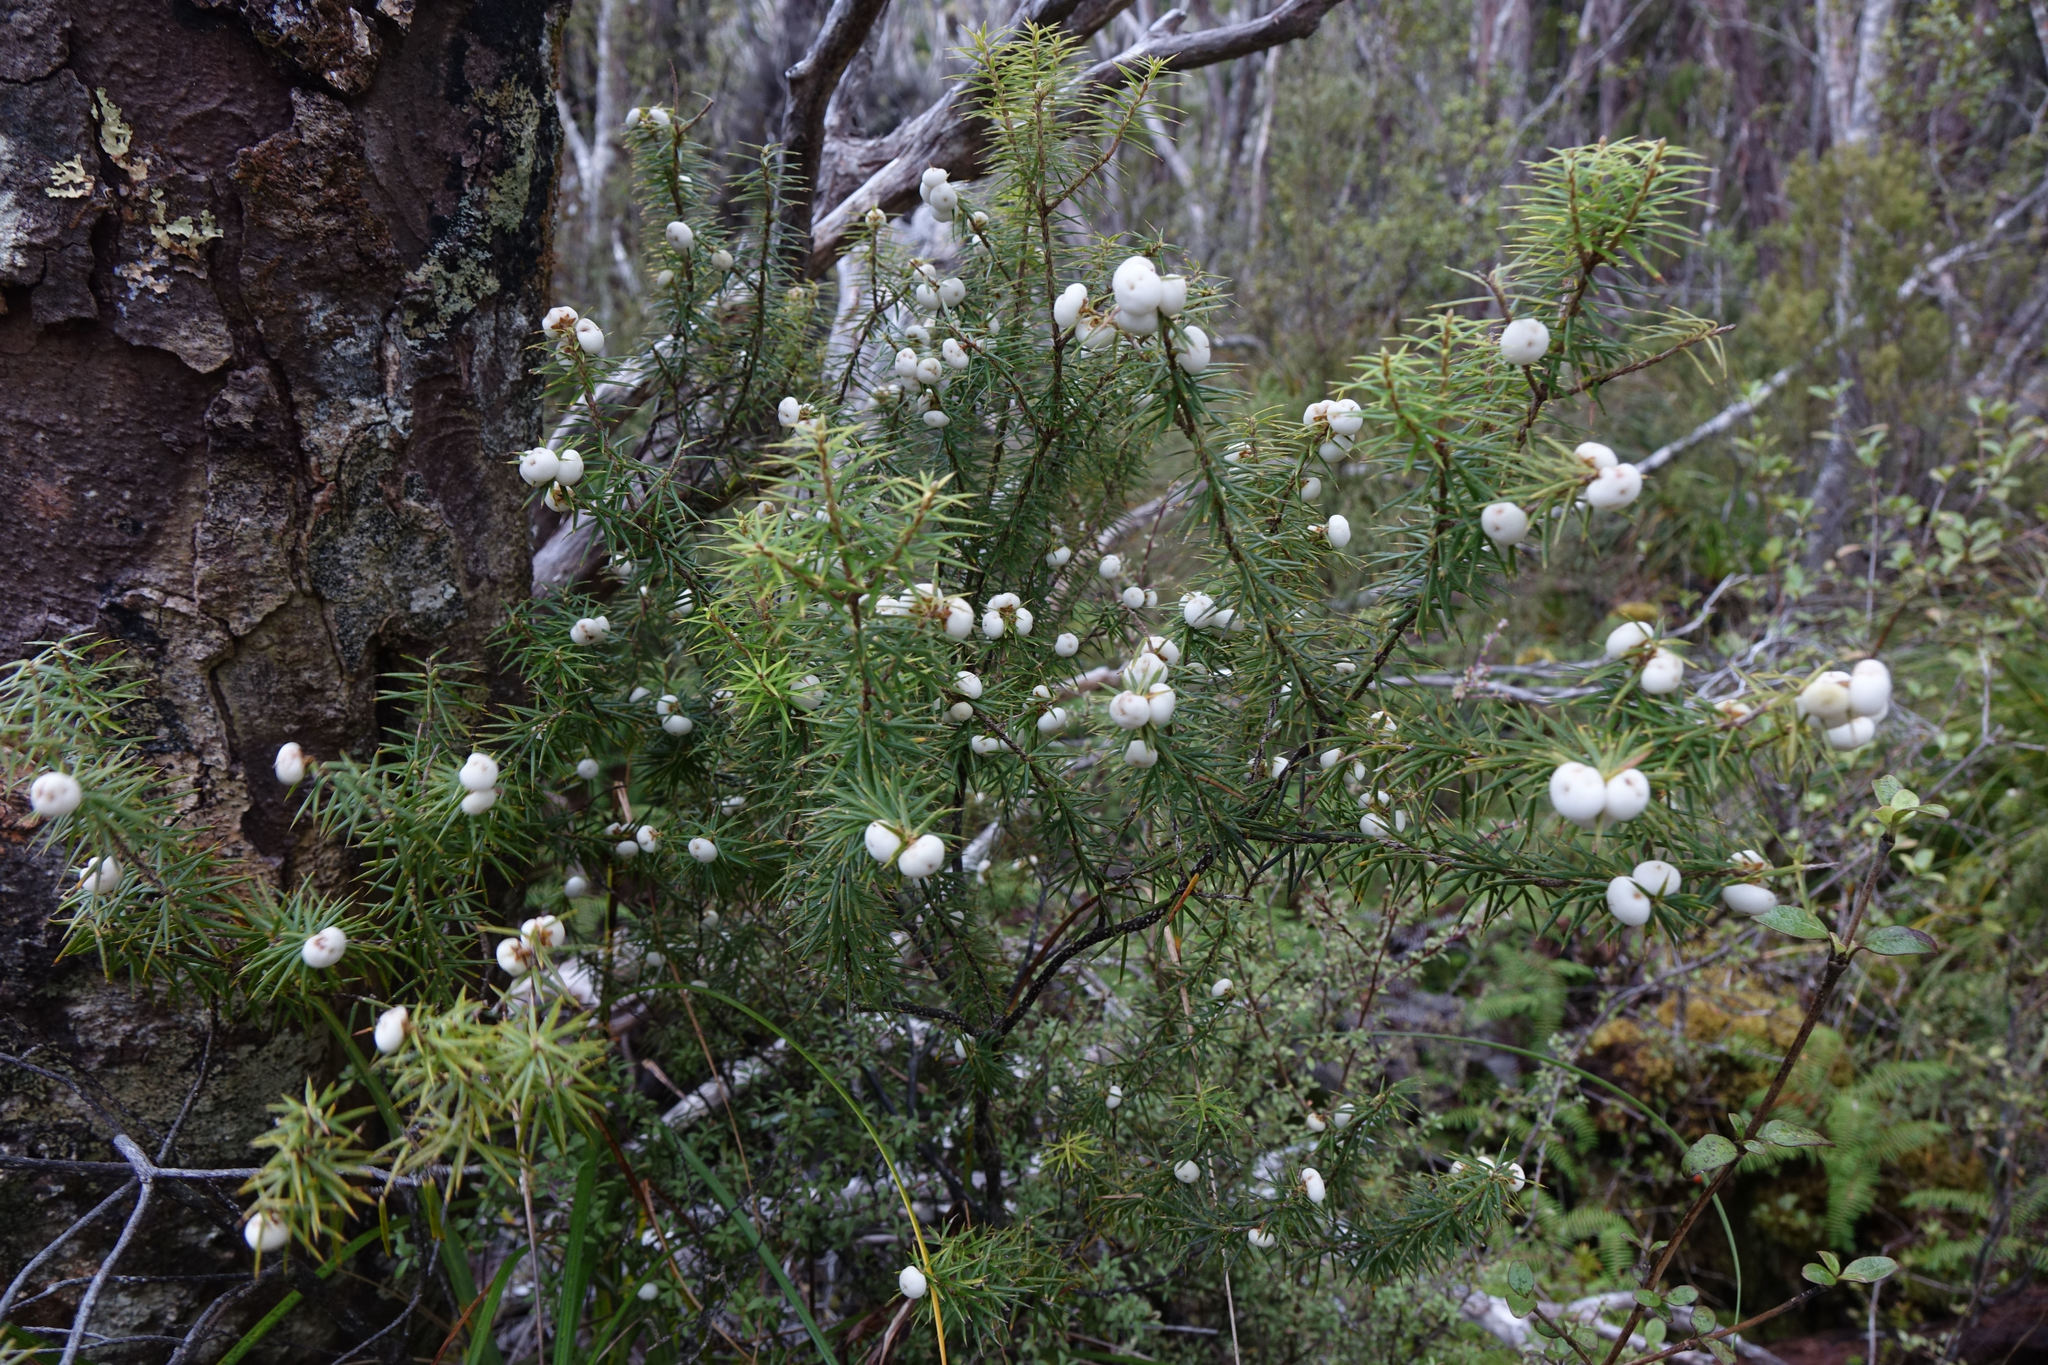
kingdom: Plantae
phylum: Tracheophyta
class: Magnoliopsida
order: Ericales
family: Ericaceae
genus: Leptecophylla
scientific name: Leptecophylla juniperina
